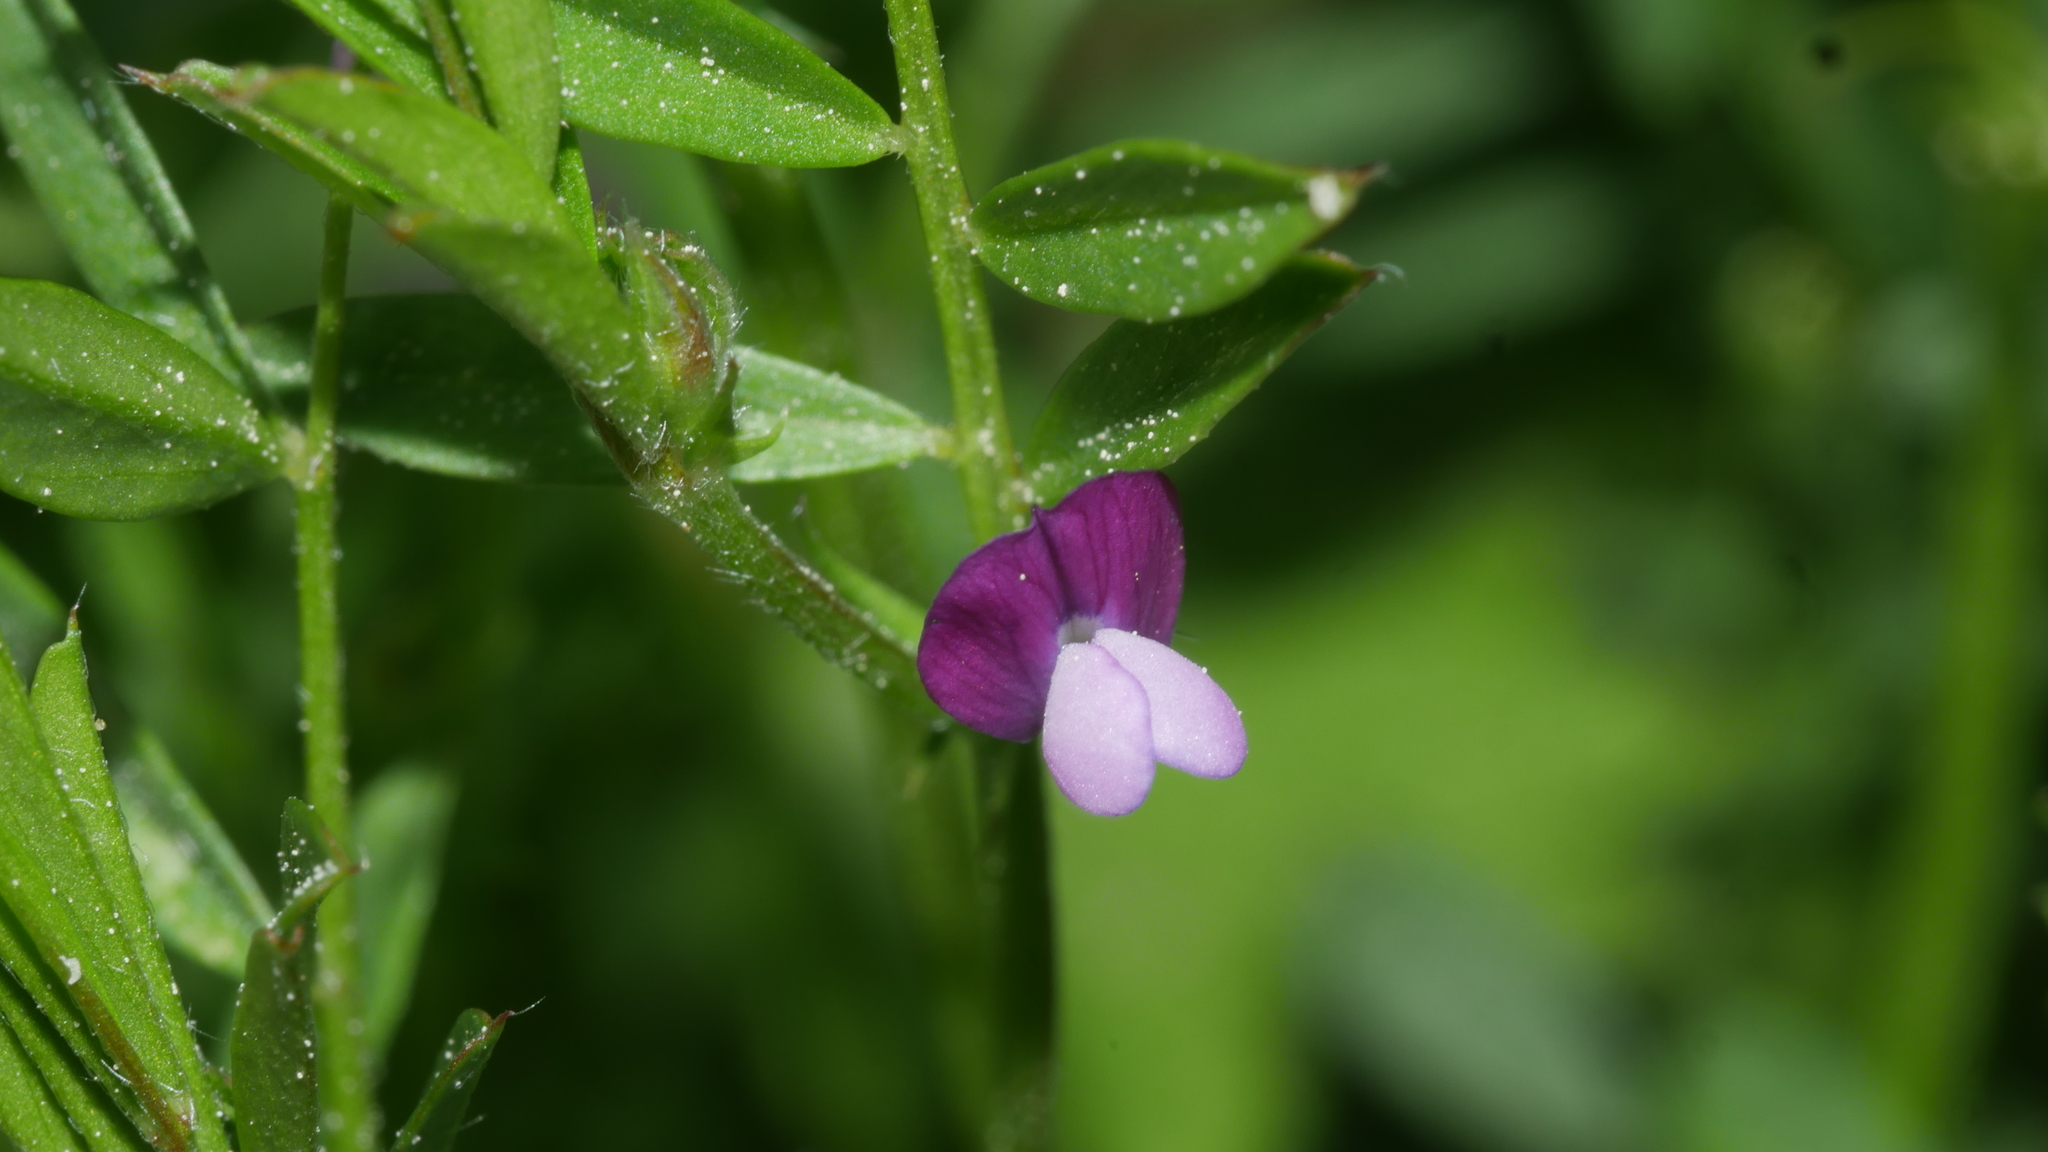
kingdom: Plantae
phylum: Tracheophyta
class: Magnoliopsida
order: Fabales
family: Fabaceae
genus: Vicia
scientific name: Vicia lathyroides
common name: Spring vetch
